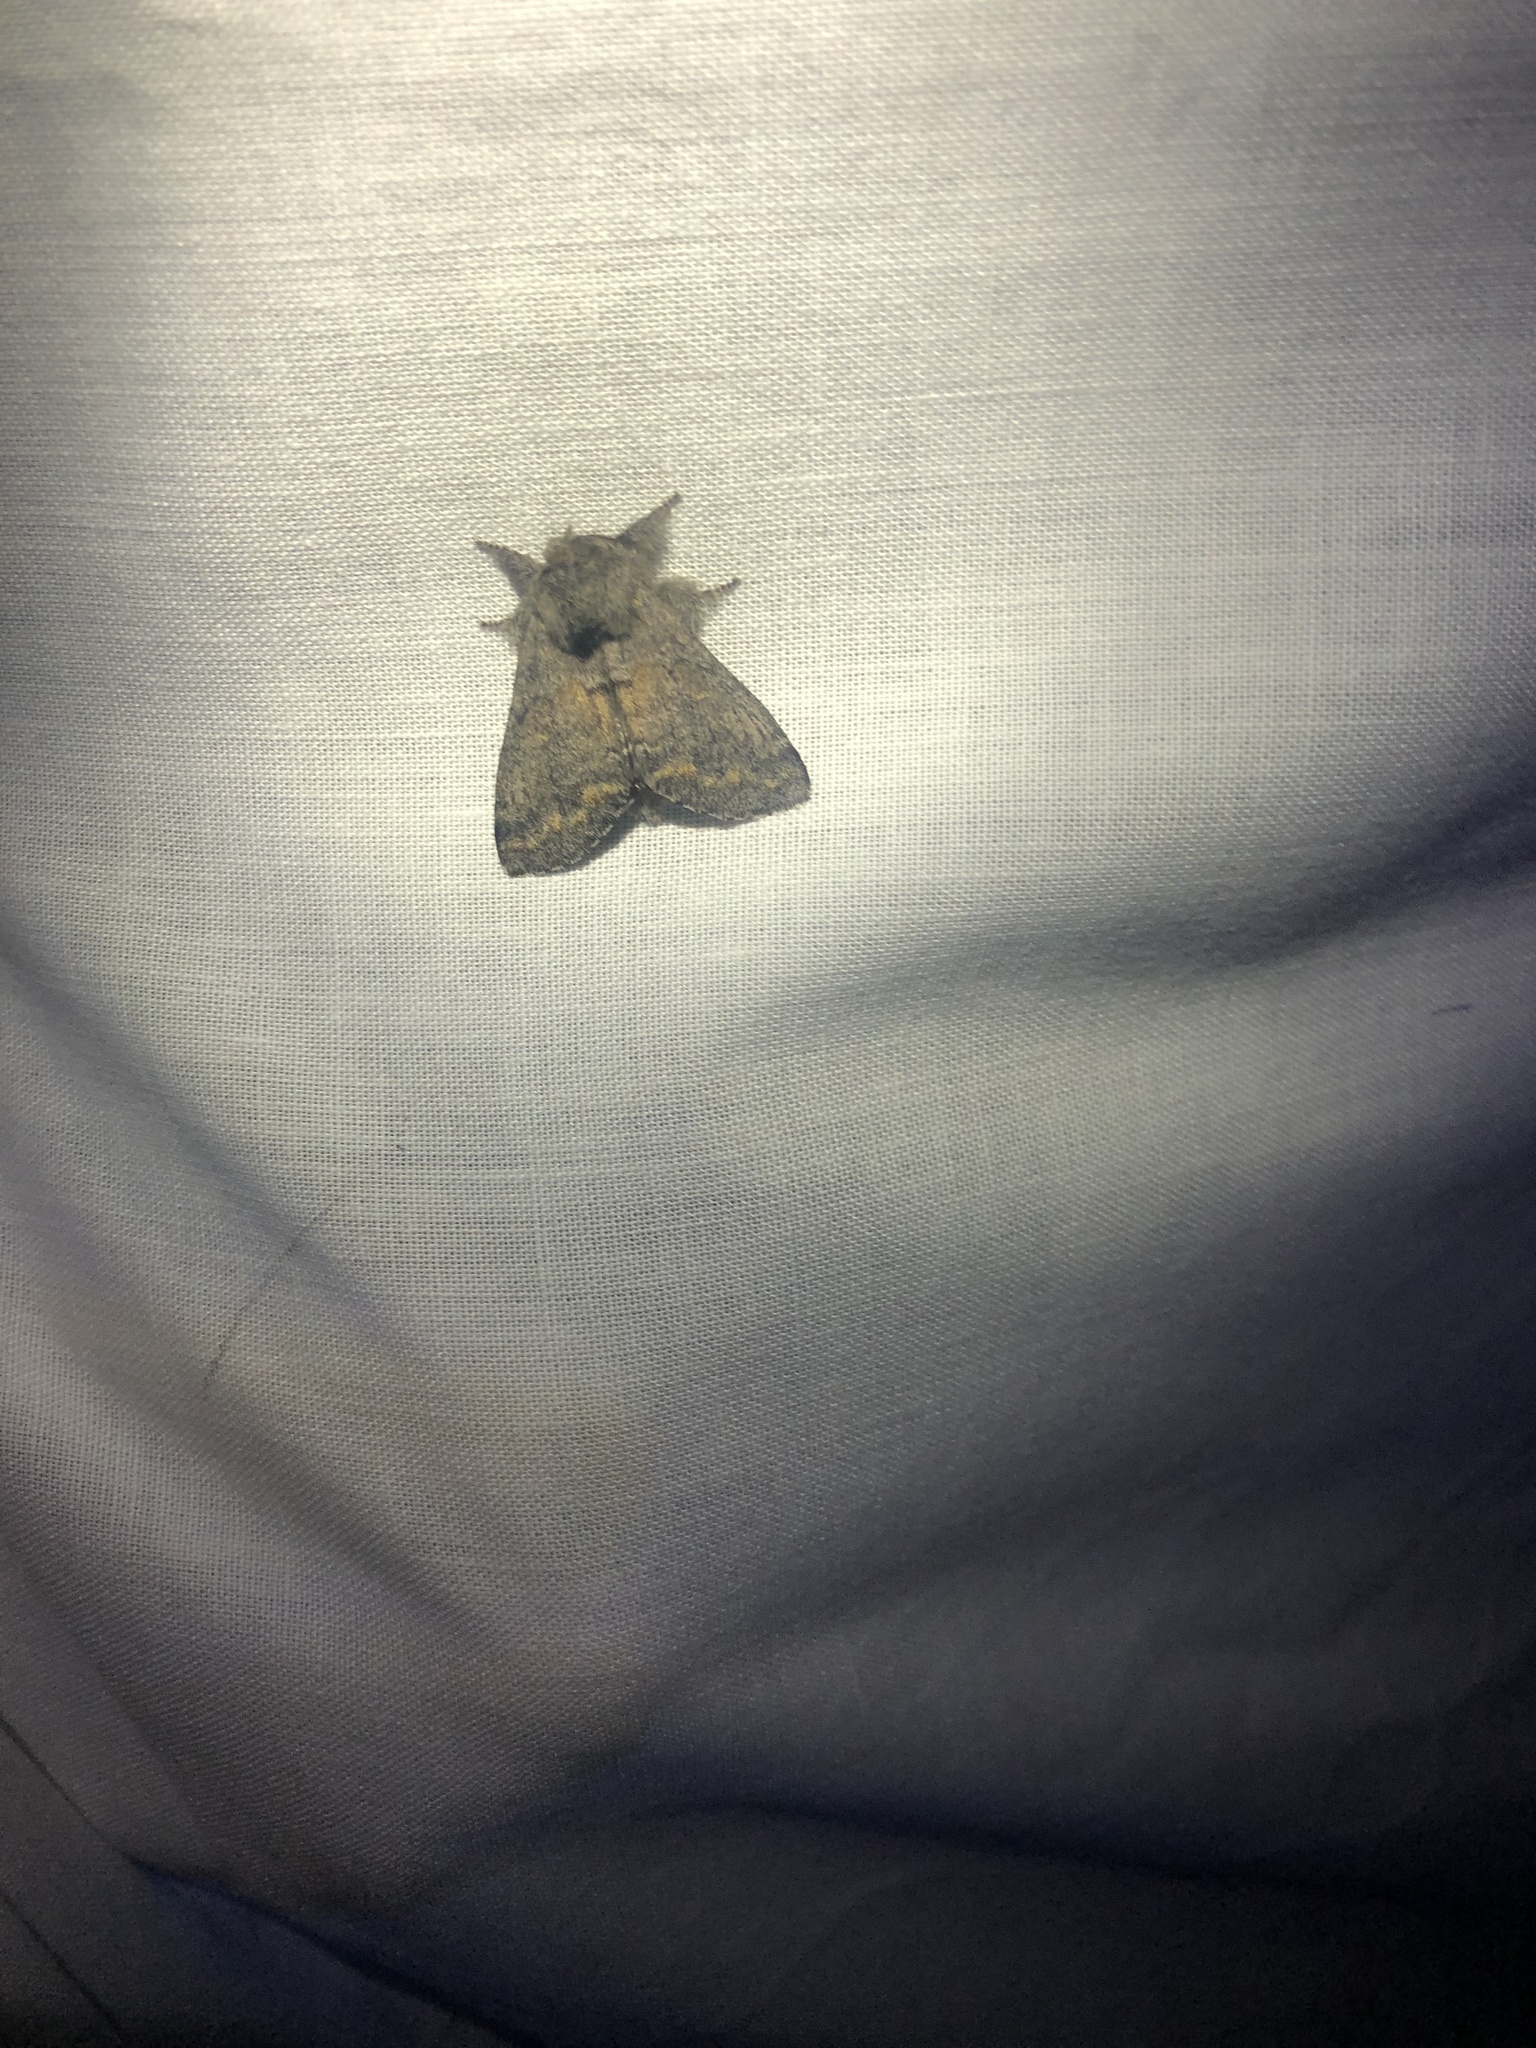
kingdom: Animalia
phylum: Arthropoda
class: Insecta
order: Lepidoptera
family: Notodontidae
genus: Gluphisia
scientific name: Gluphisia severa
